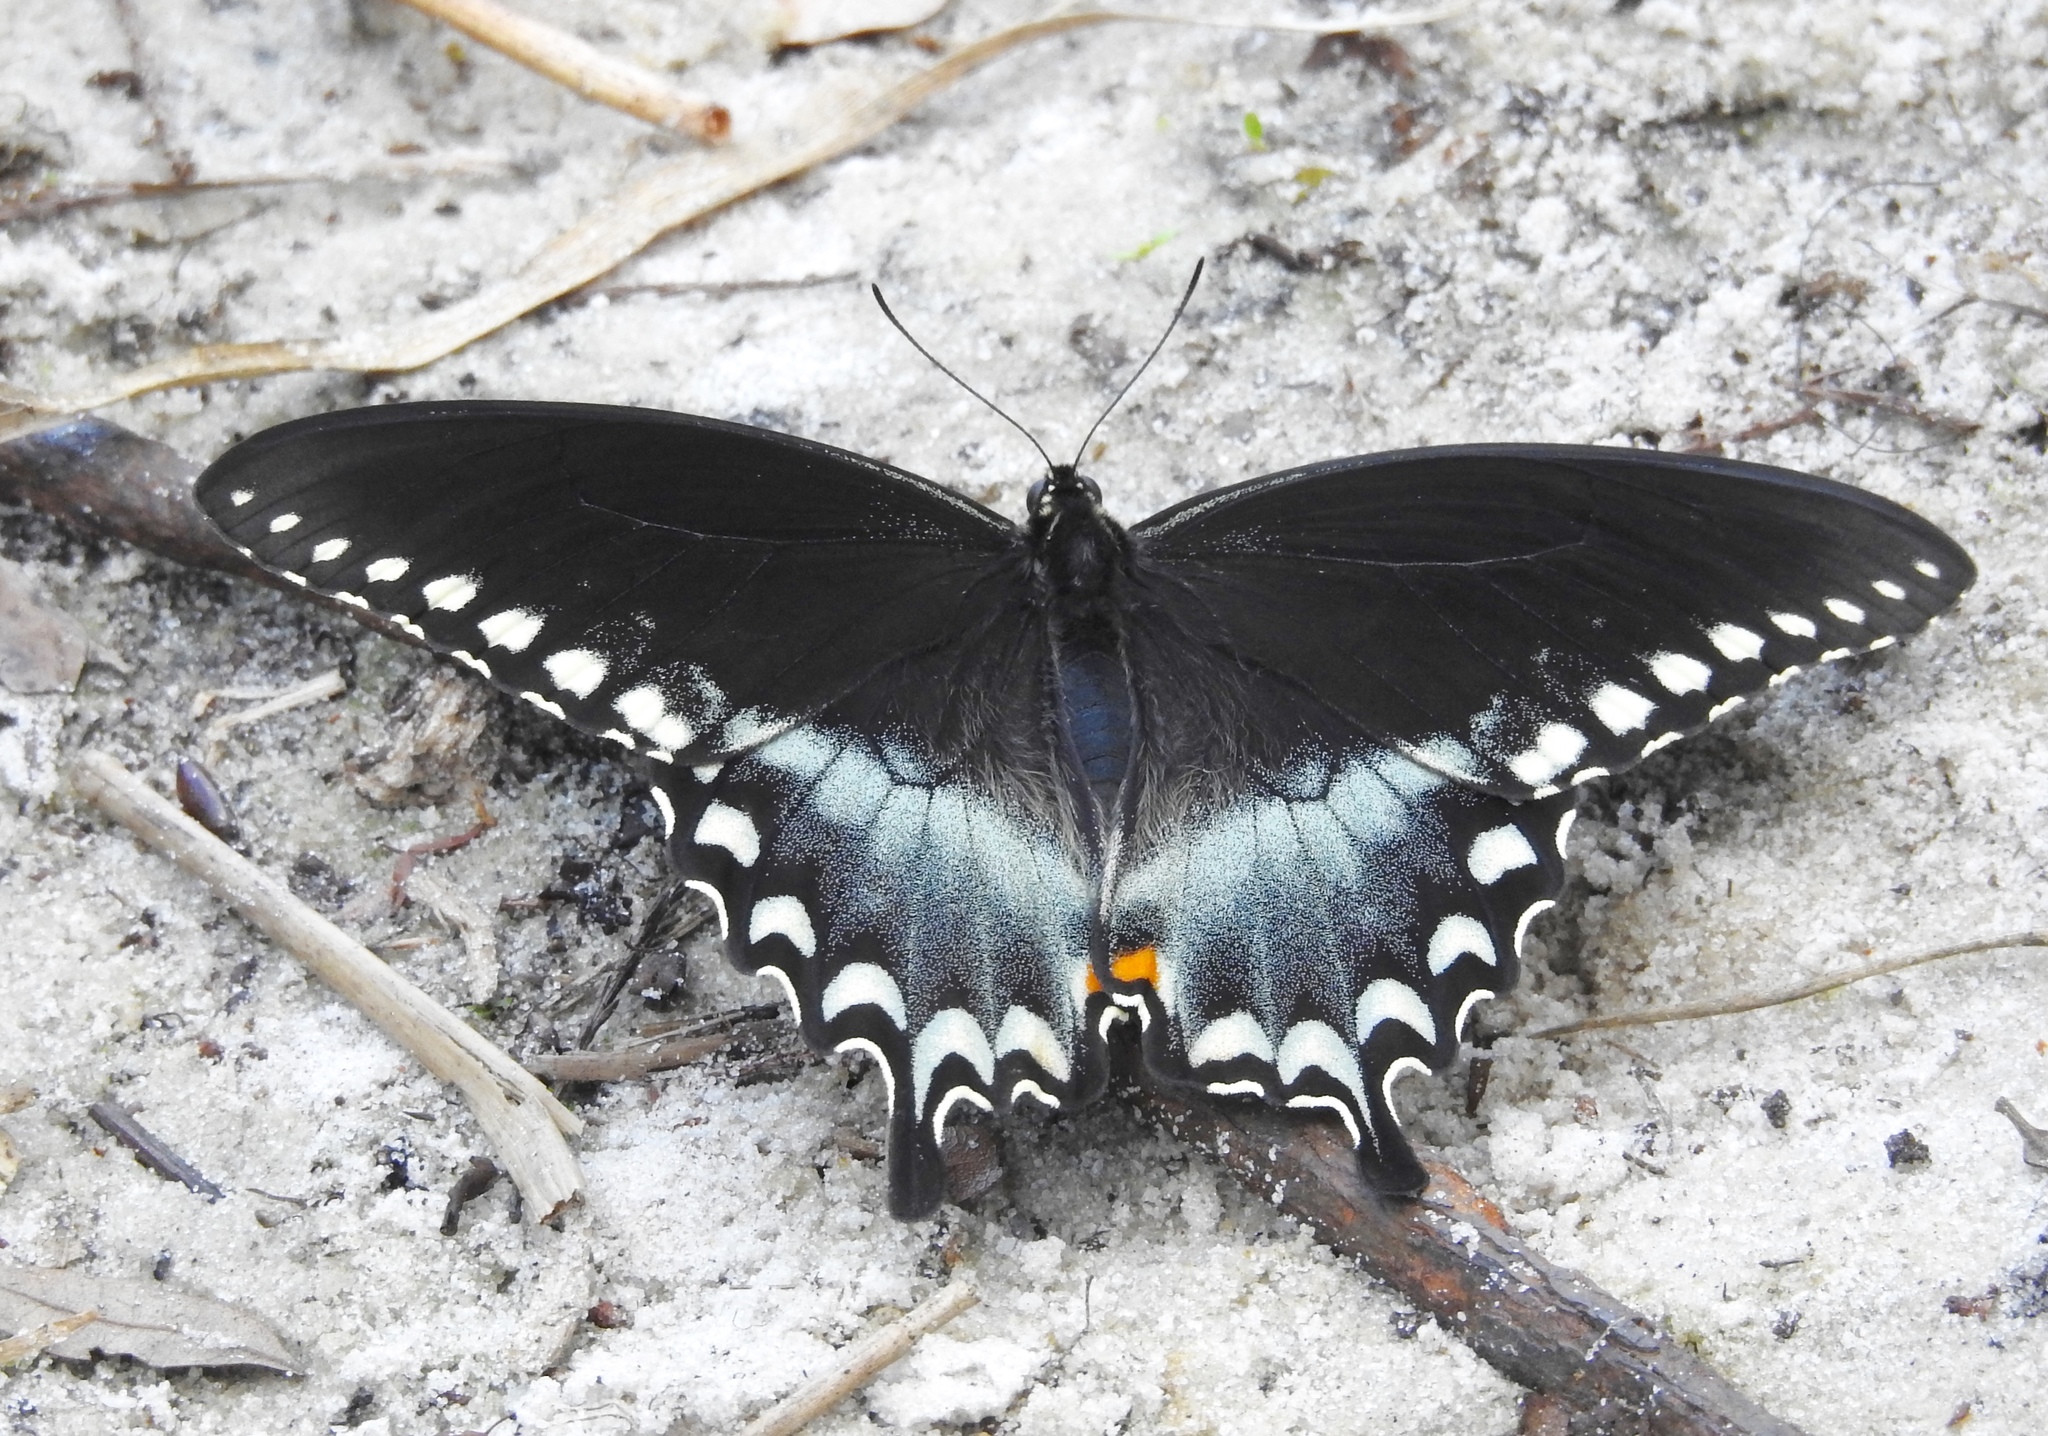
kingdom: Animalia
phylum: Arthropoda
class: Insecta
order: Lepidoptera
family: Papilionidae
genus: Papilio
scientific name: Papilio troilus
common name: Spicebush swallowtail
